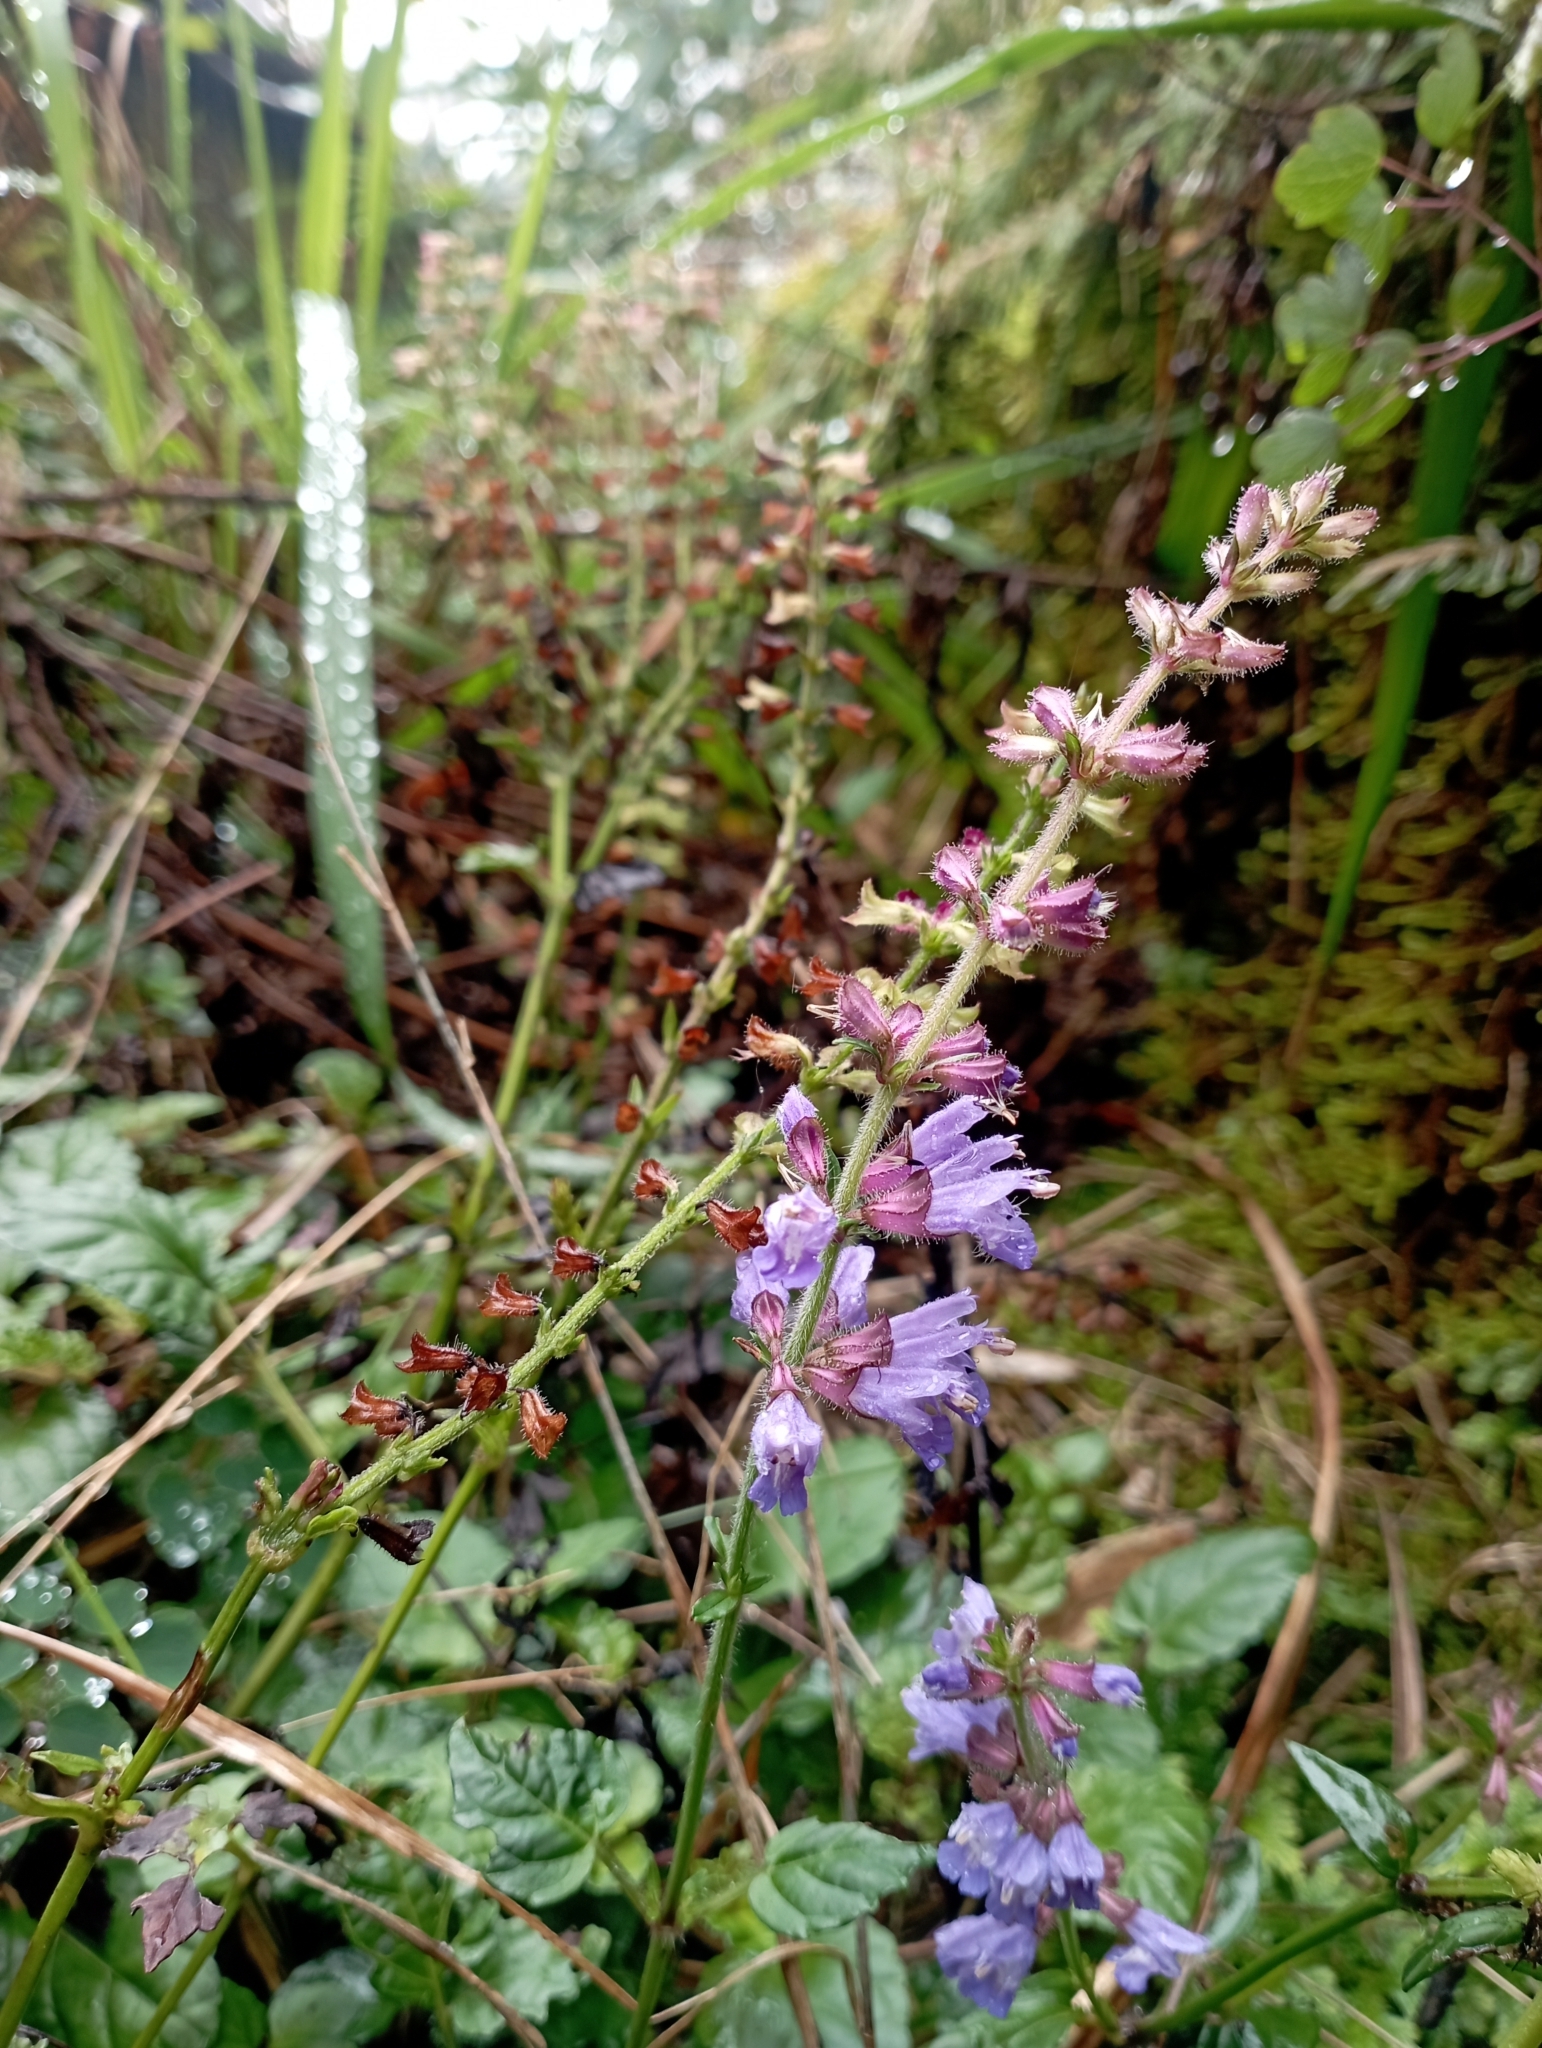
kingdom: Plantae
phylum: Tracheophyta
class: Magnoliopsida
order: Lamiales
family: Lamiaceae
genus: Salvia
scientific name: Salvia japonica
